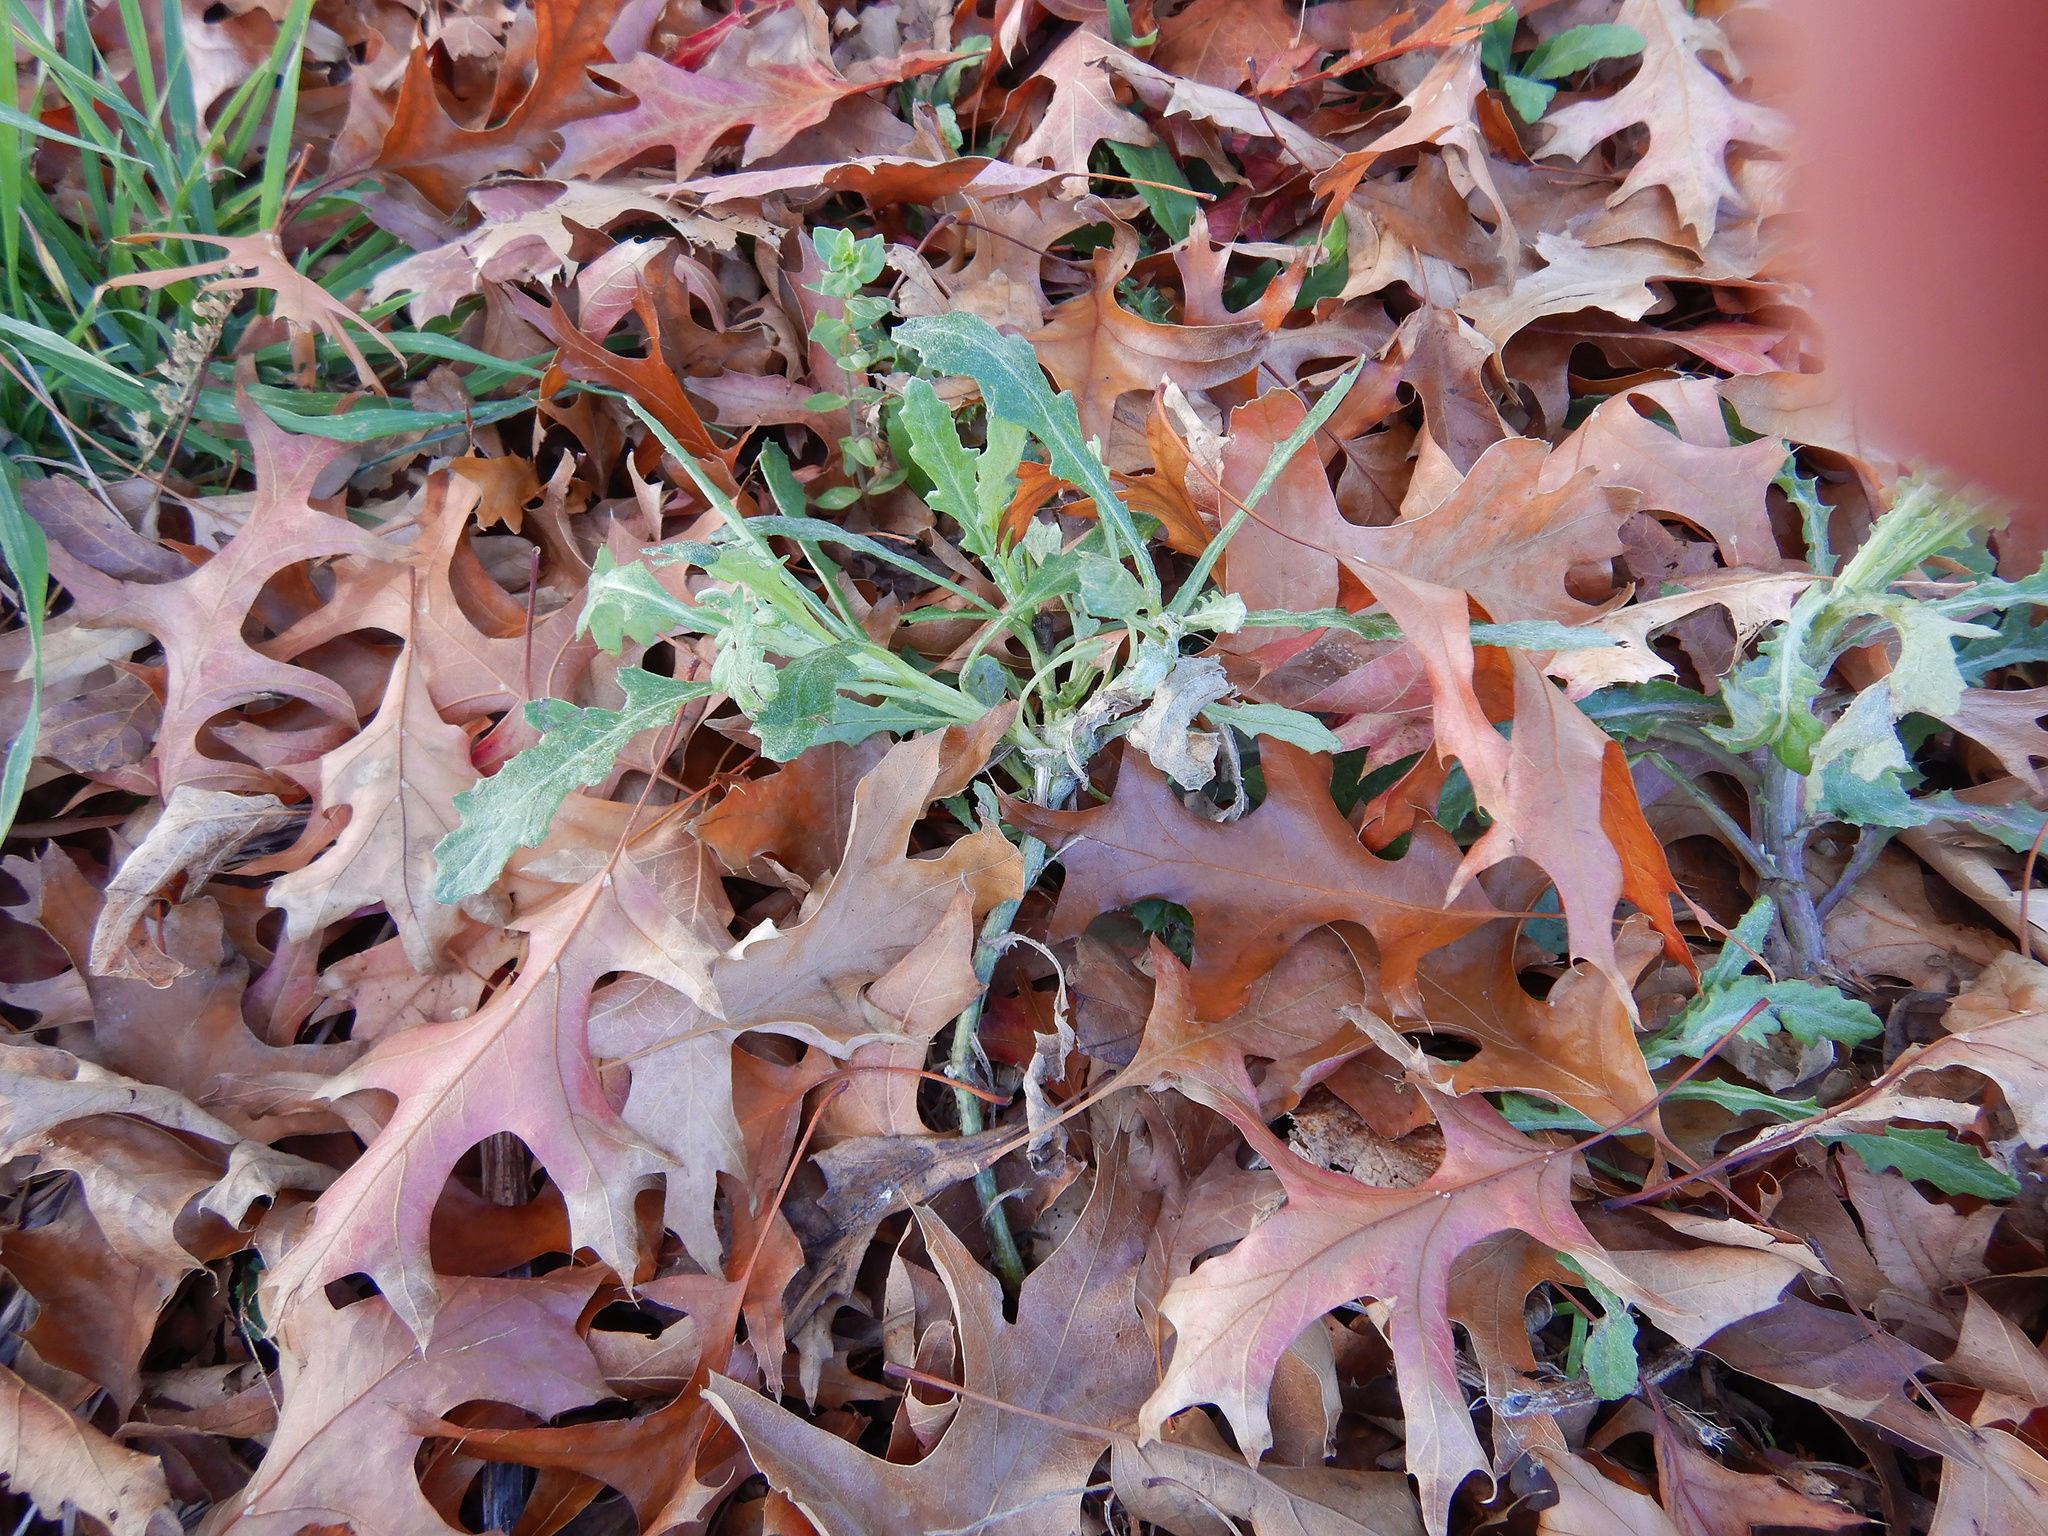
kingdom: Plantae
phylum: Tracheophyta
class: Magnoliopsida
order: Asterales
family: Asteraceae
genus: Senecio
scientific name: Senecio glomeratus
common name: Cutleaf burnweed
